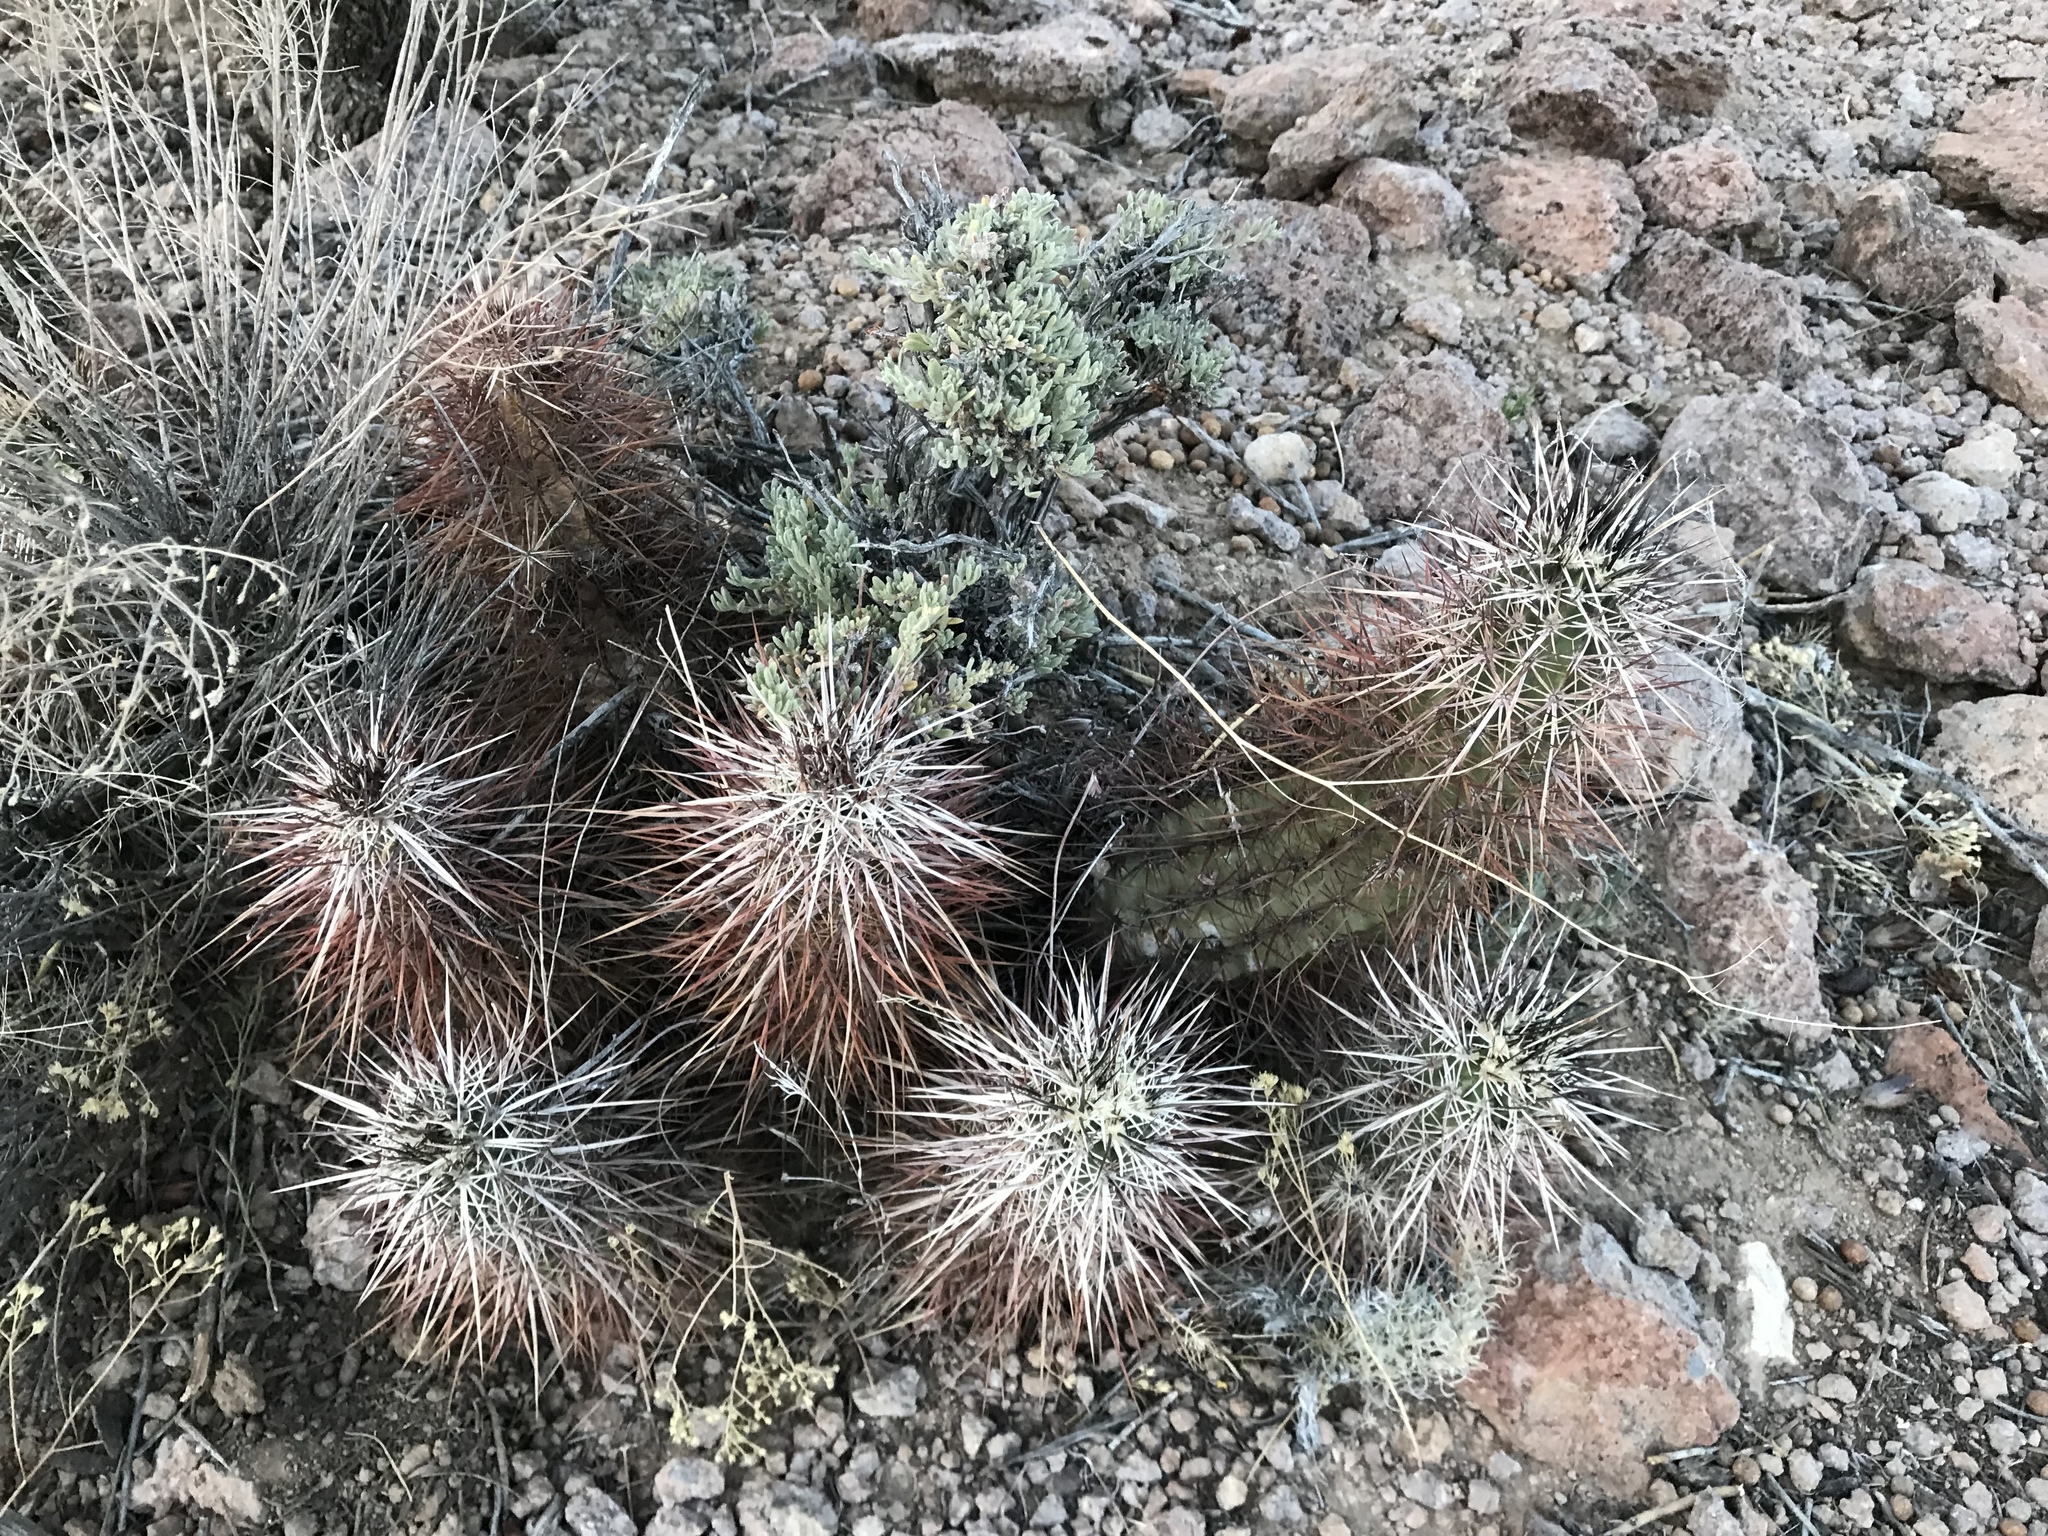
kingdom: Plantae
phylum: Tracheophyta
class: Magnoliopsida
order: Caryophyllales
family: Cactaceae
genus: Echinocereus
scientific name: Echinocereus engelmannii
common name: Engelmann's hedgehog cactus
